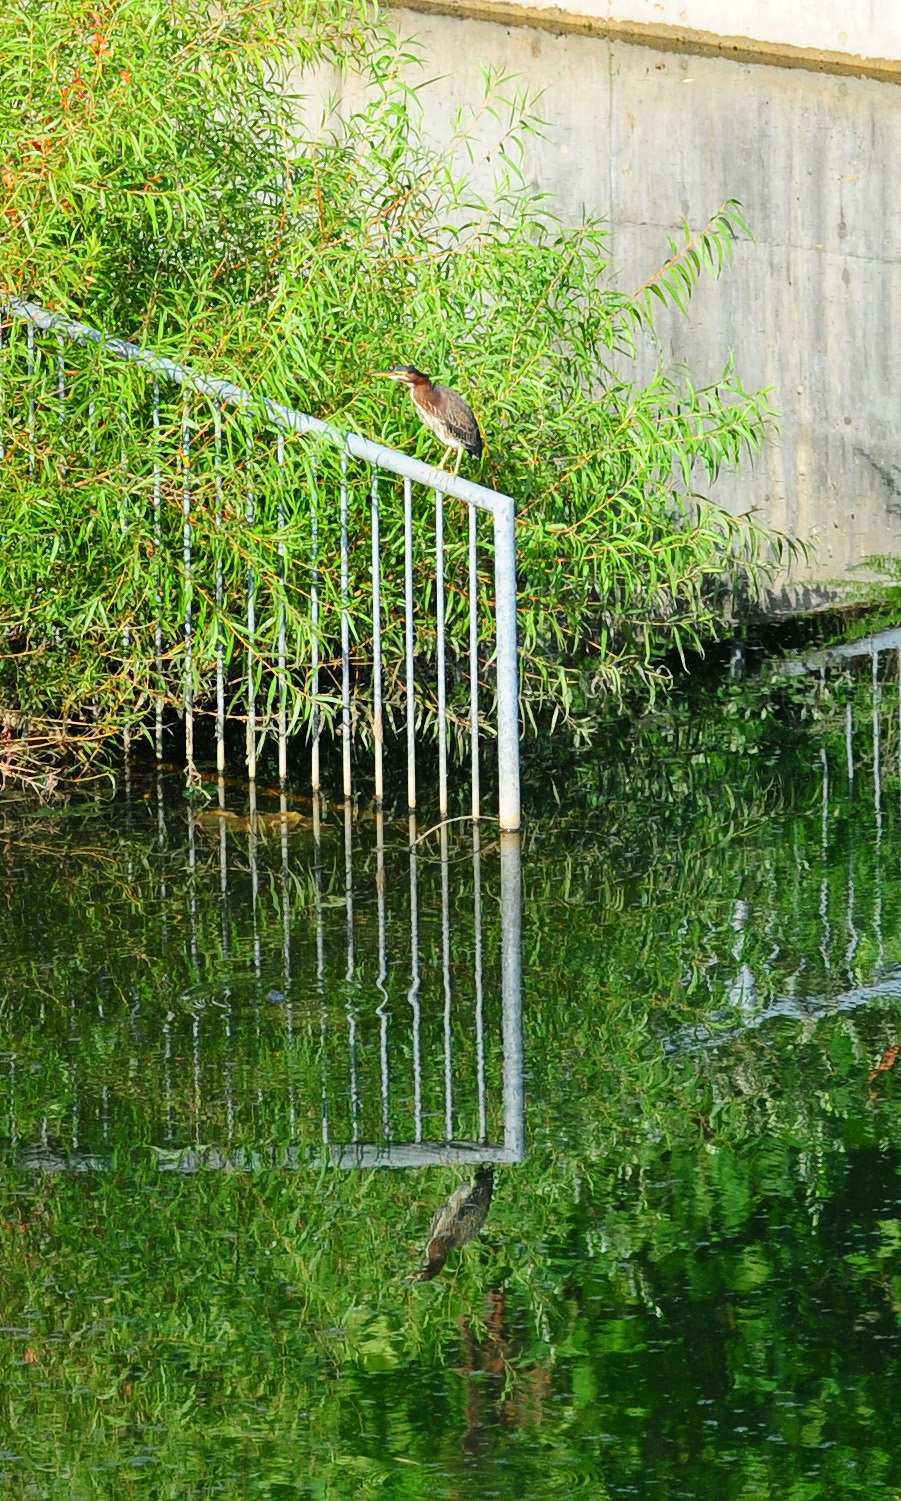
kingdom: Animalia
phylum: Chordata
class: Aves
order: Pelecaniformes
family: Ardeidae
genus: Butorides
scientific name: Butorides virescens
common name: Green heron
